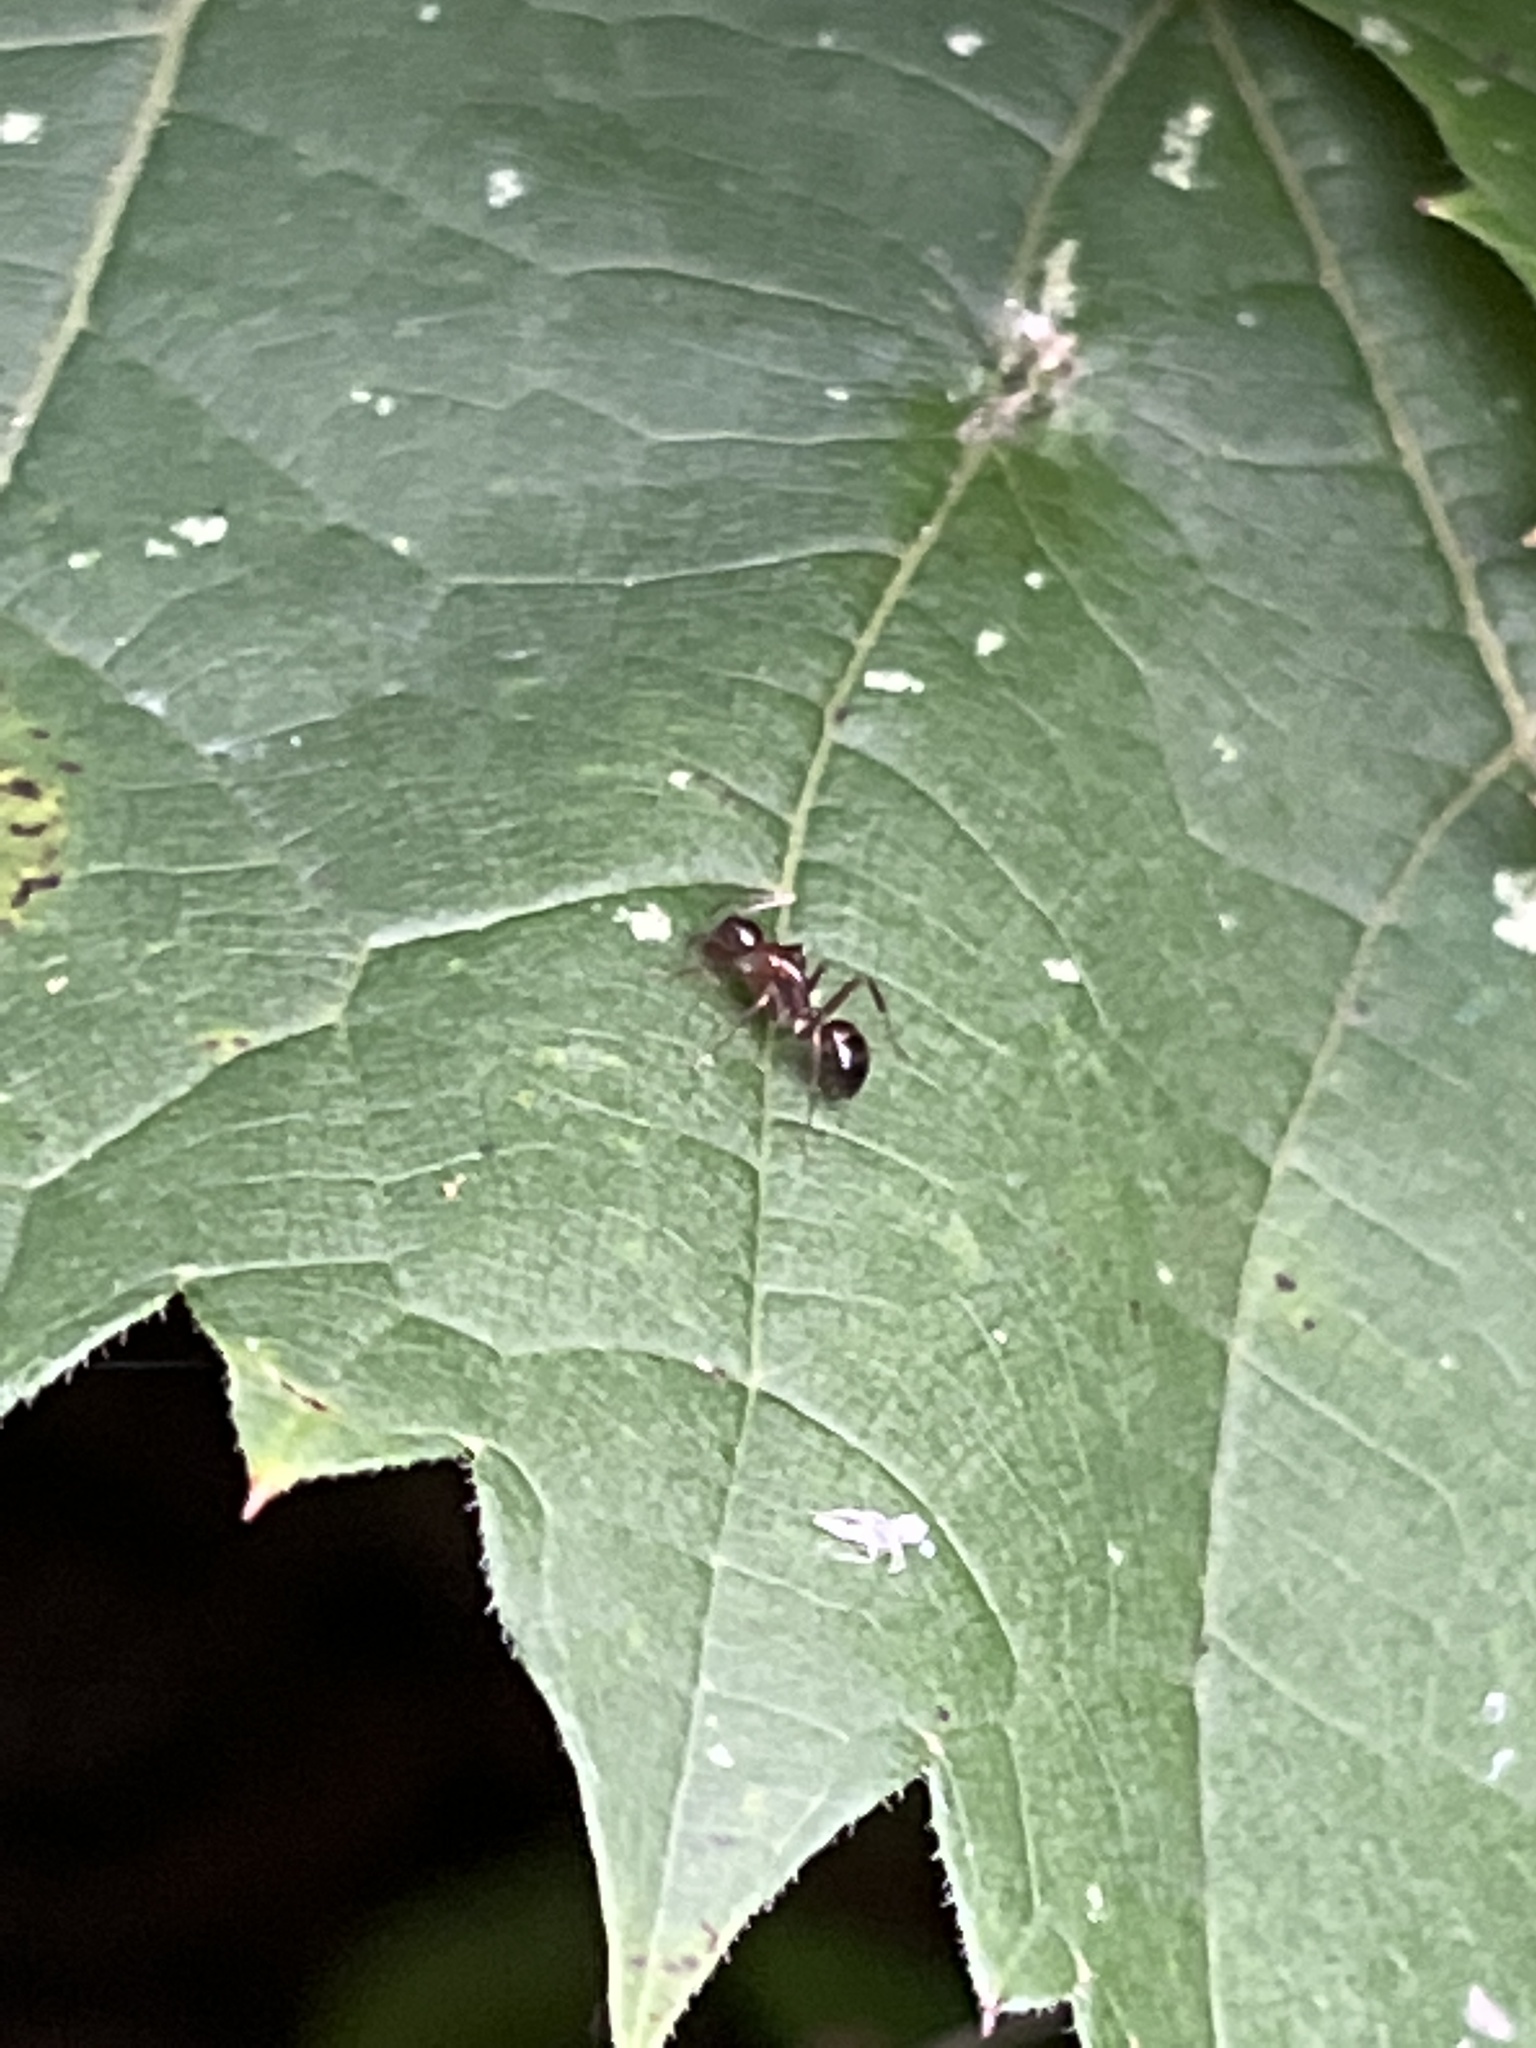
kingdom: Animalia
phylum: Arthropoda
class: Insecta
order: Hymenoptera
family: Formicidae
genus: Camponotus
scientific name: Camponotus subbarbatus
